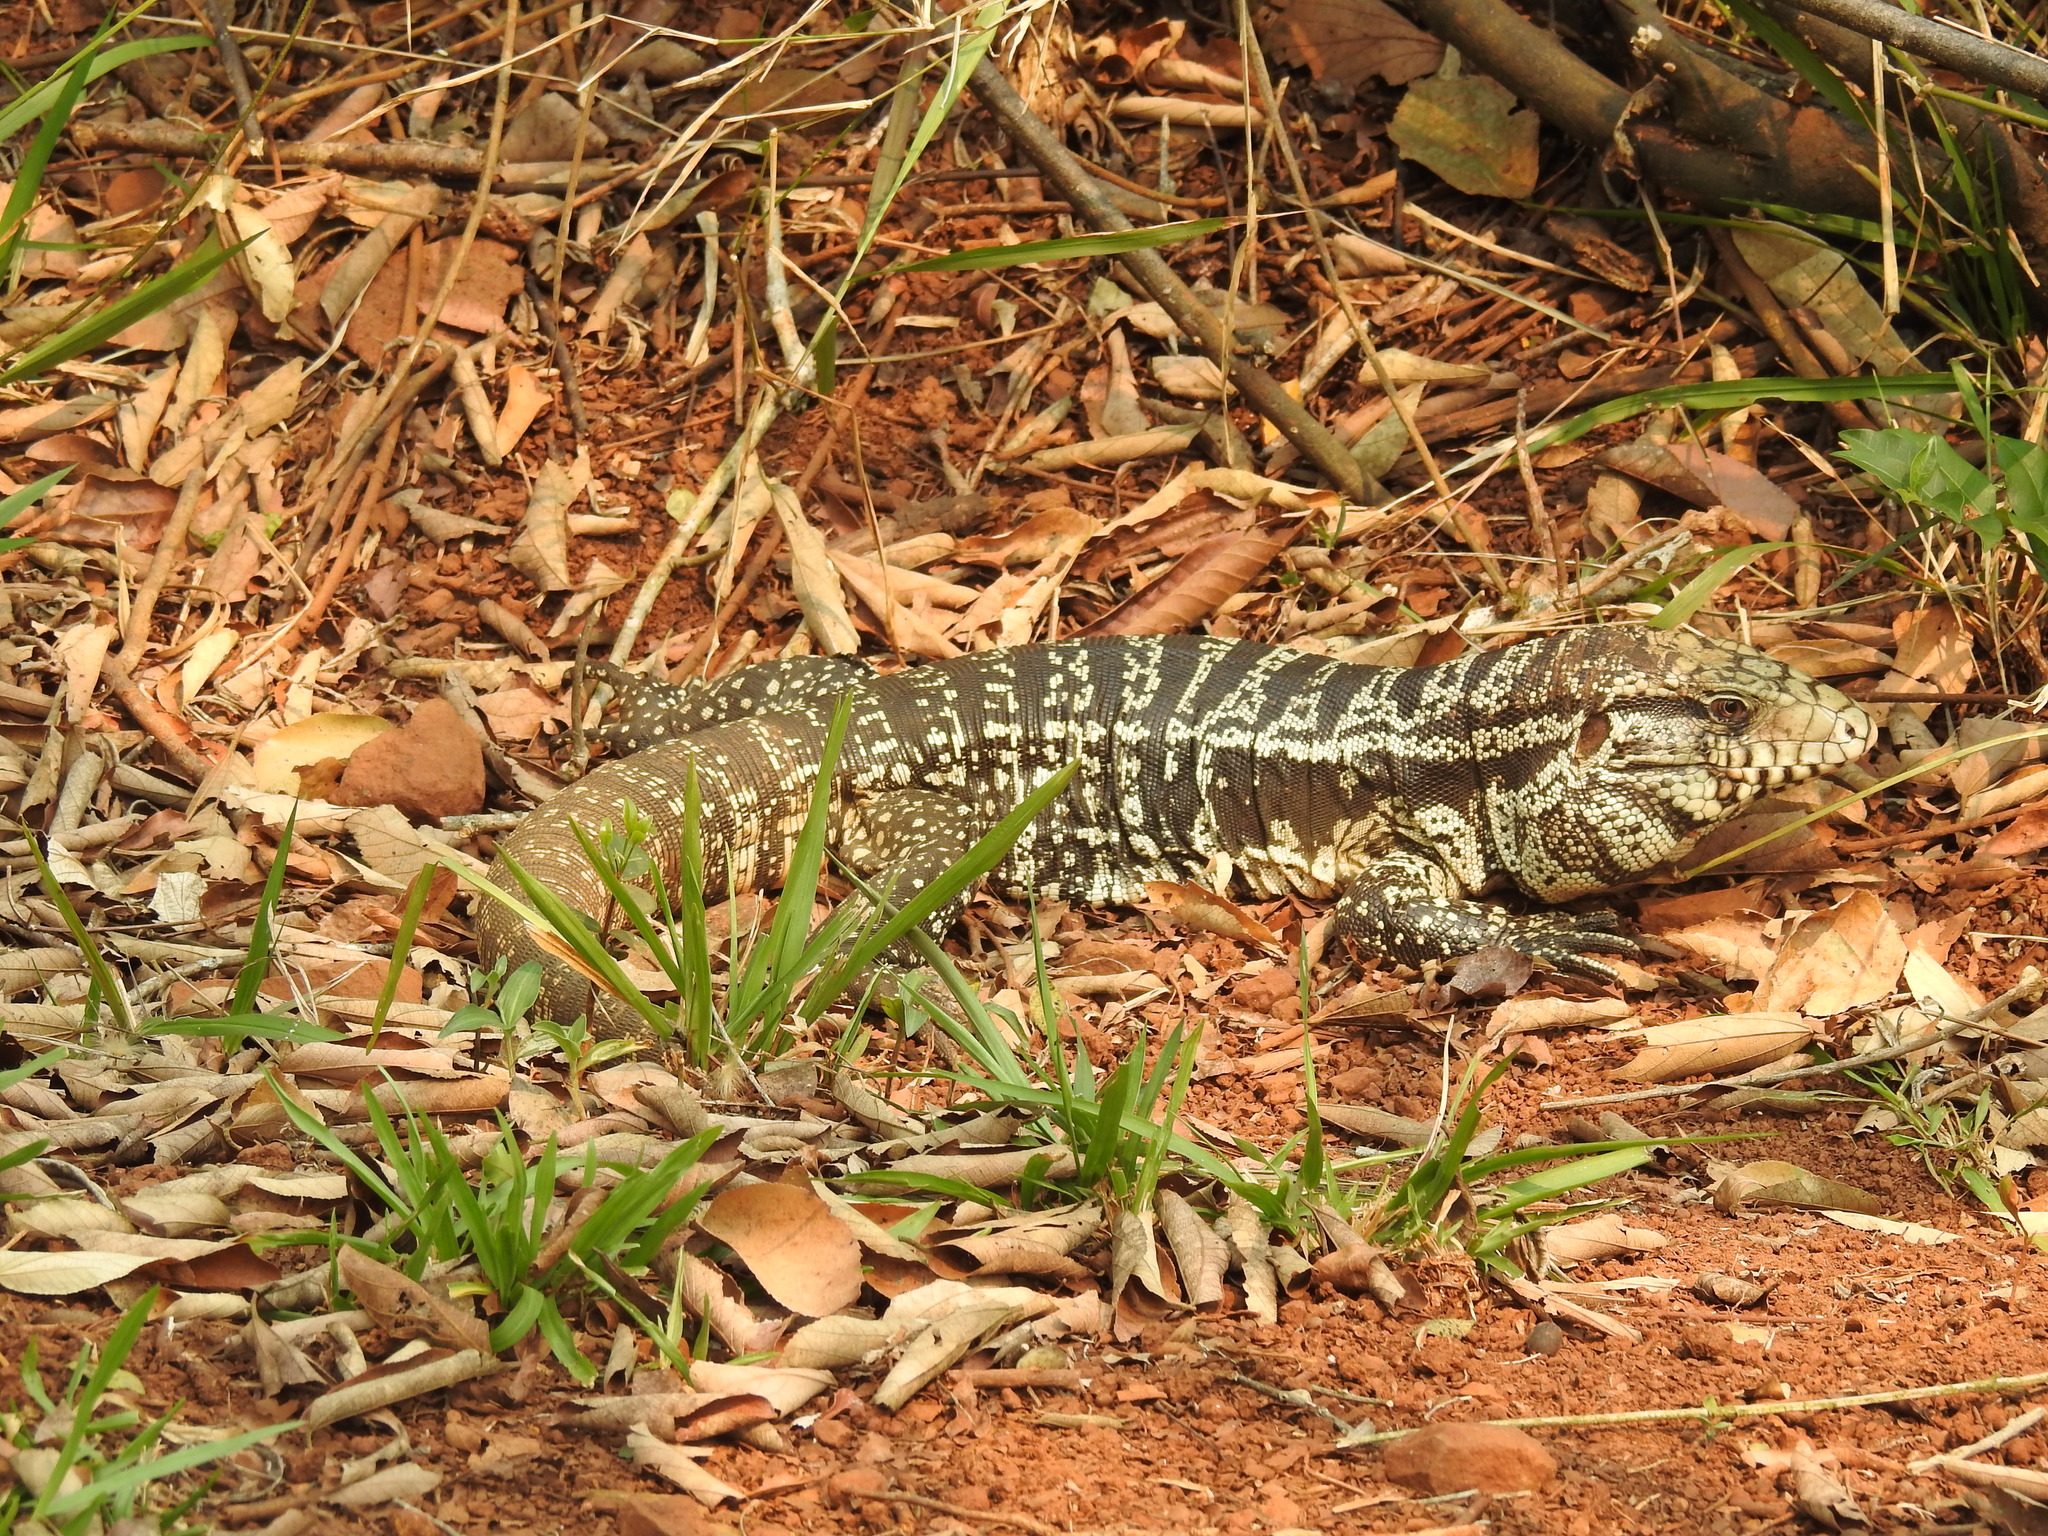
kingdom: Animalia
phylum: Chordata
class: Squamata
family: Teiidae
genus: Salvator
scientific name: Salvator merianae
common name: Argentine black and white tegu
